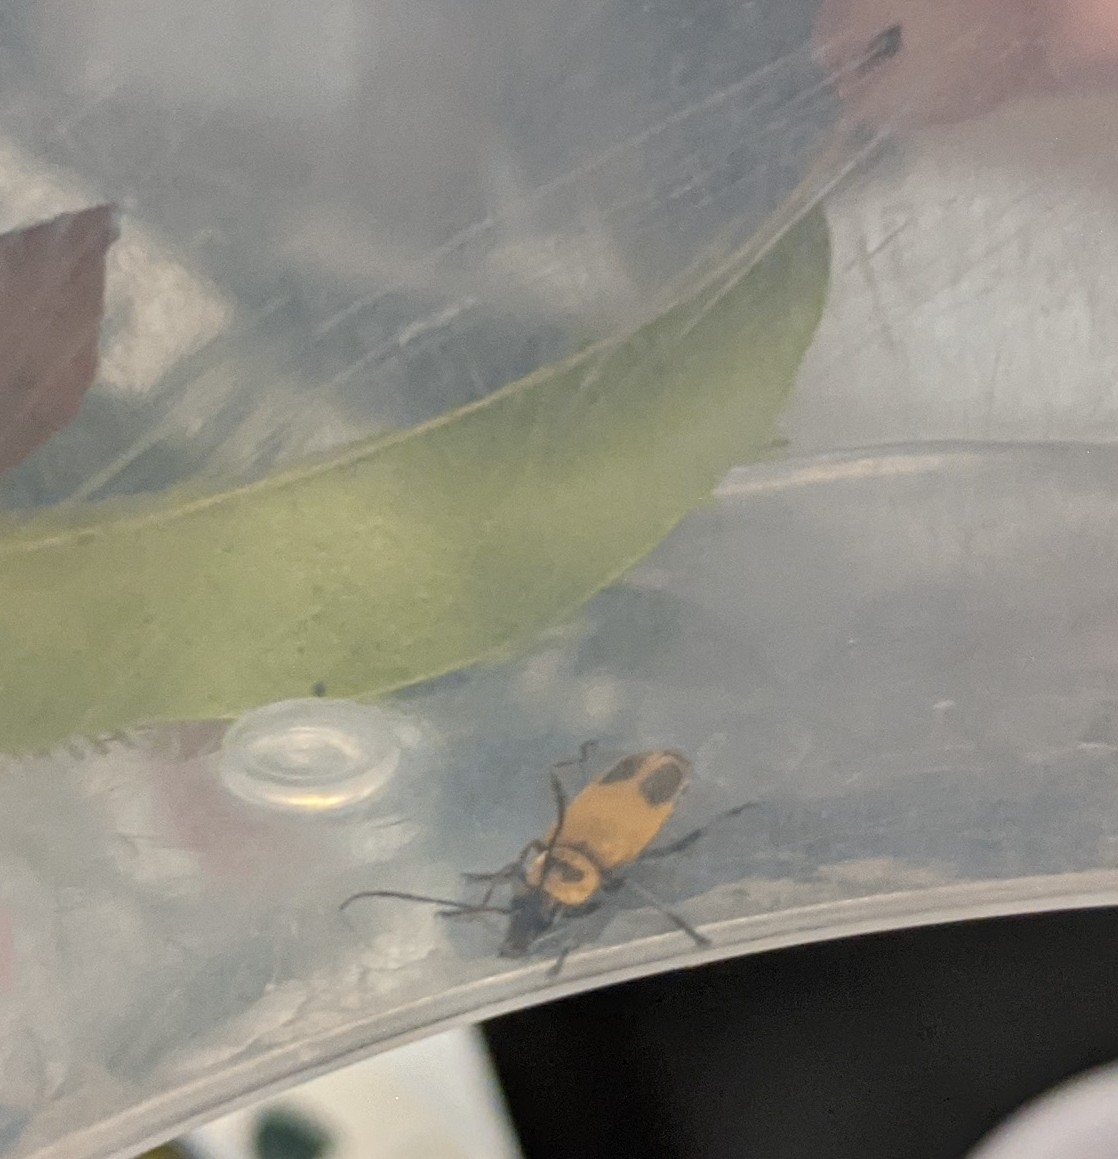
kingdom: Animalia
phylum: Arthropoda
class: Insecta
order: Coleoptera
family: Cantharidae
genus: Chauliognathus
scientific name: Chauliognathus pensylvanicus
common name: Goldenrod soldier beetle
